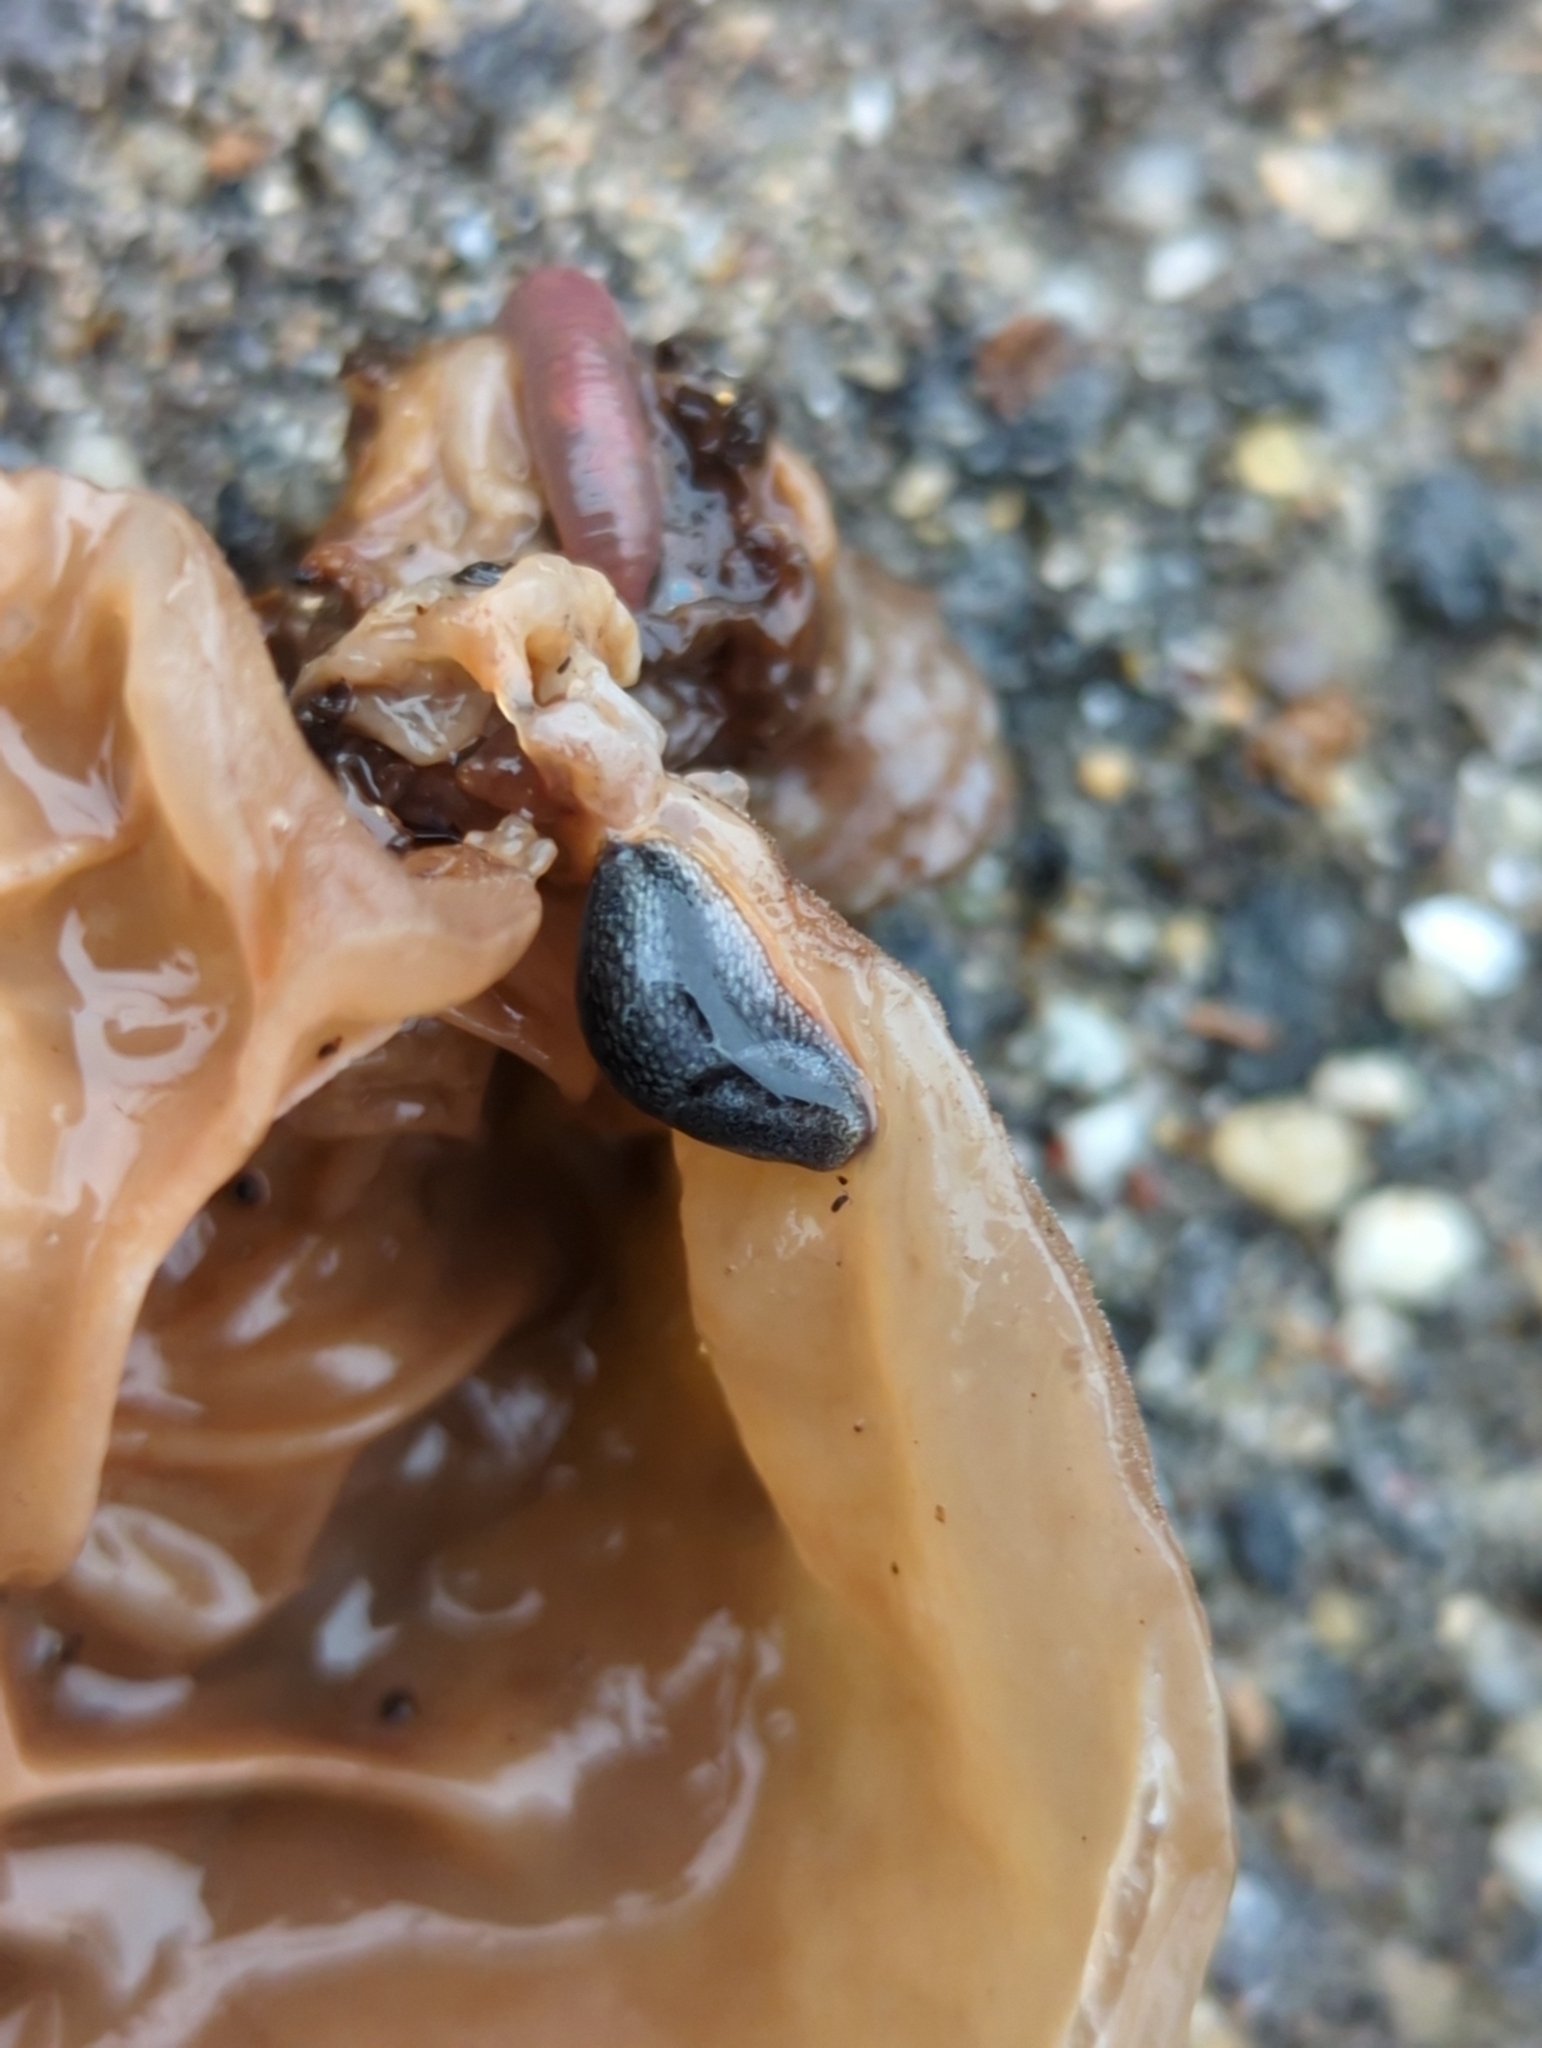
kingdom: Animalia
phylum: Mollusca
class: Gastropoda
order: Stylommatophora
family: Arionidae
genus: Arion
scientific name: Arion hortensis
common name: Garden arion
